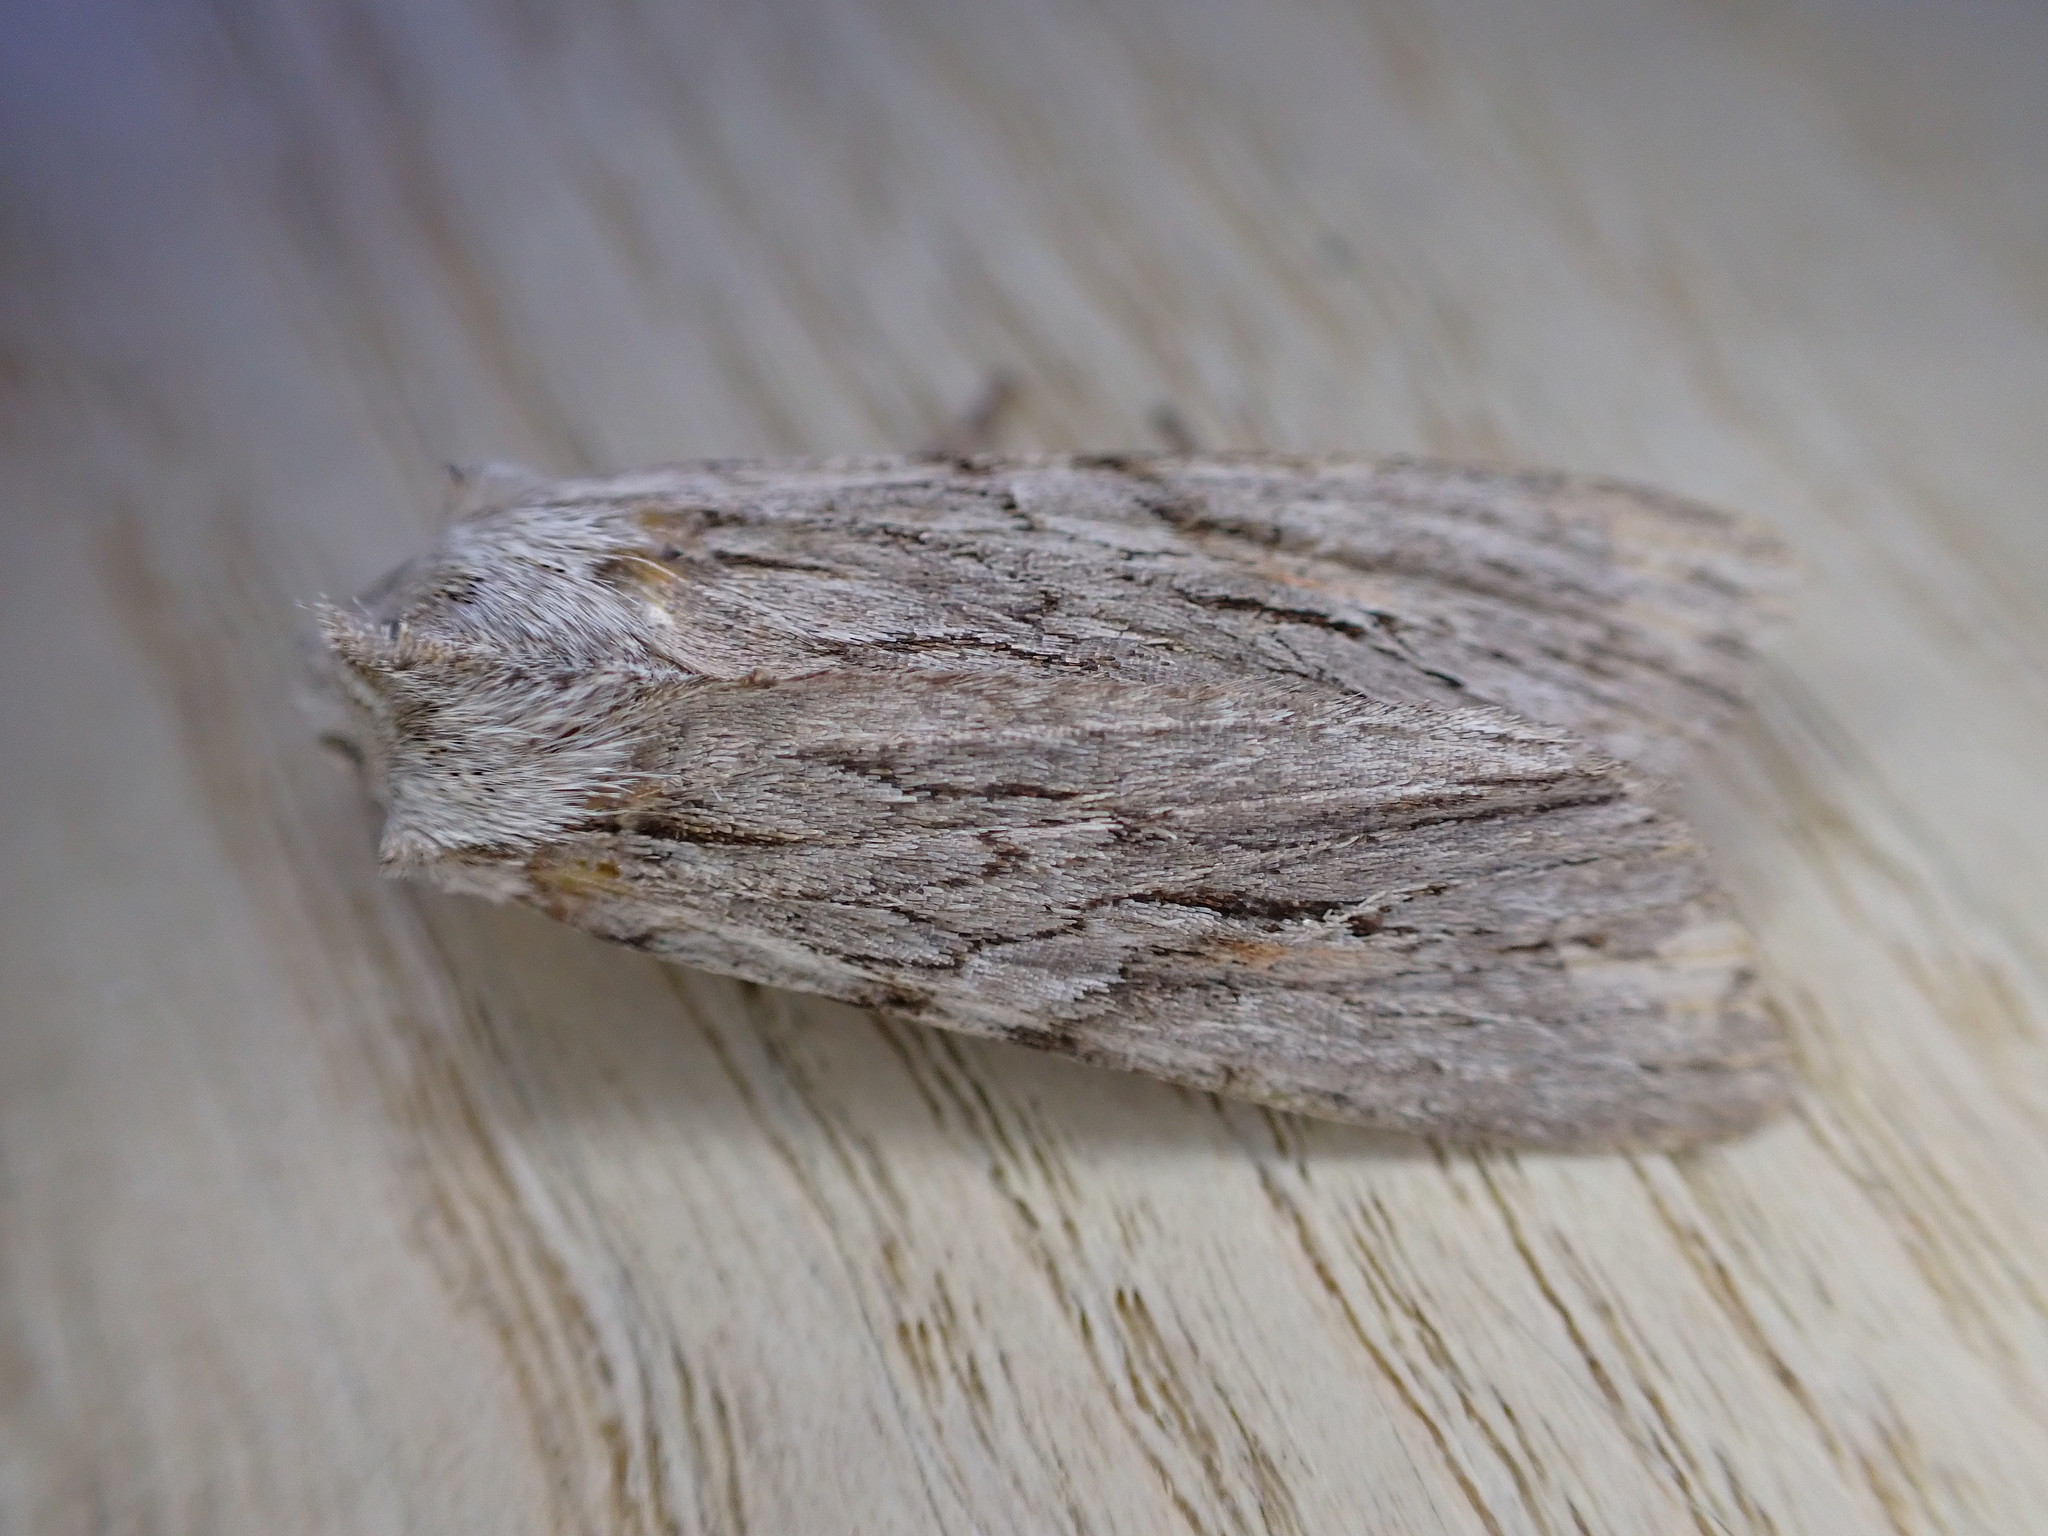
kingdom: Animalia
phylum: Arthropoda
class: Insecta
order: Lepidoptera
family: Noctuidae
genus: Lithophane
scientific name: Lithophane leautieri
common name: Blair's shoulder-knot
